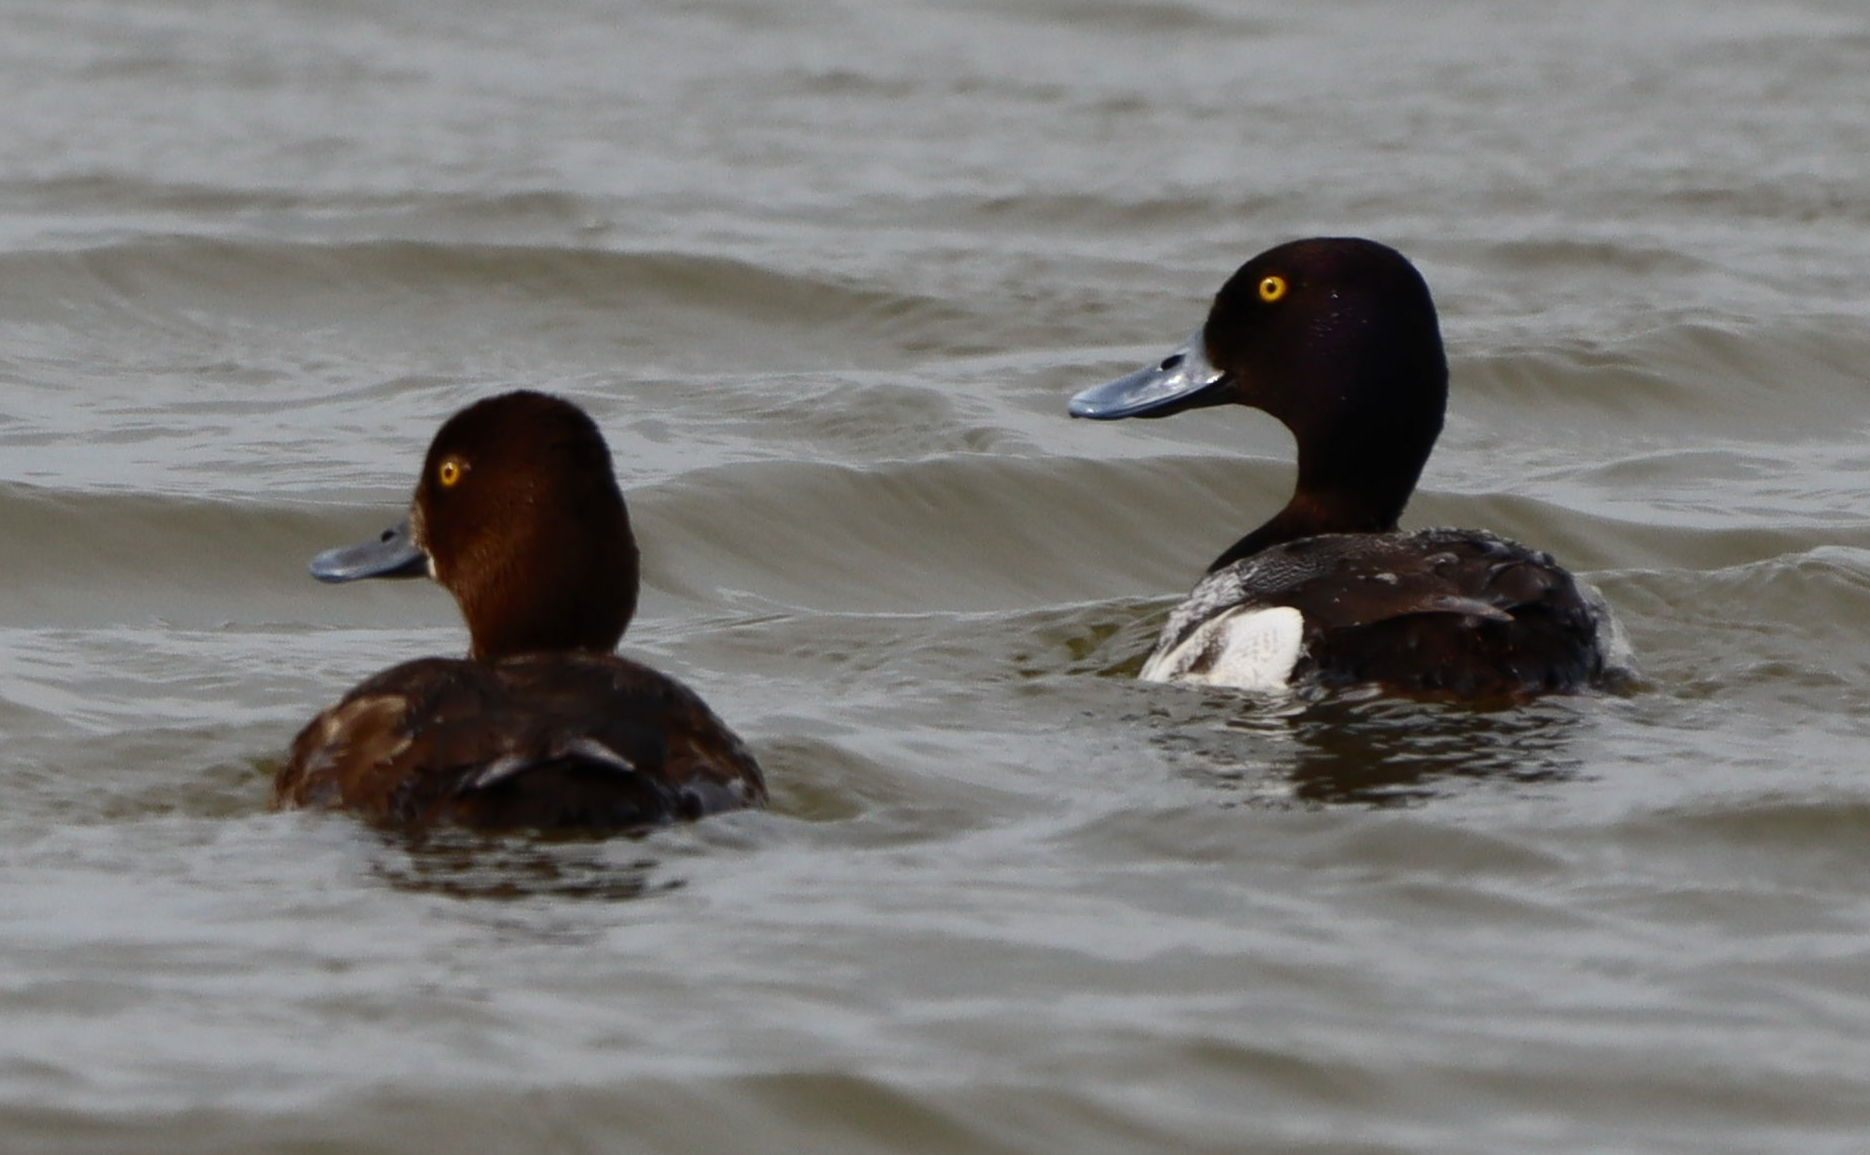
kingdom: Animalia
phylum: Chordata
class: Aves
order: Anseriformes
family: Anatidae
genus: Aythya
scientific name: Aythya affinis
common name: Lesser scaup
